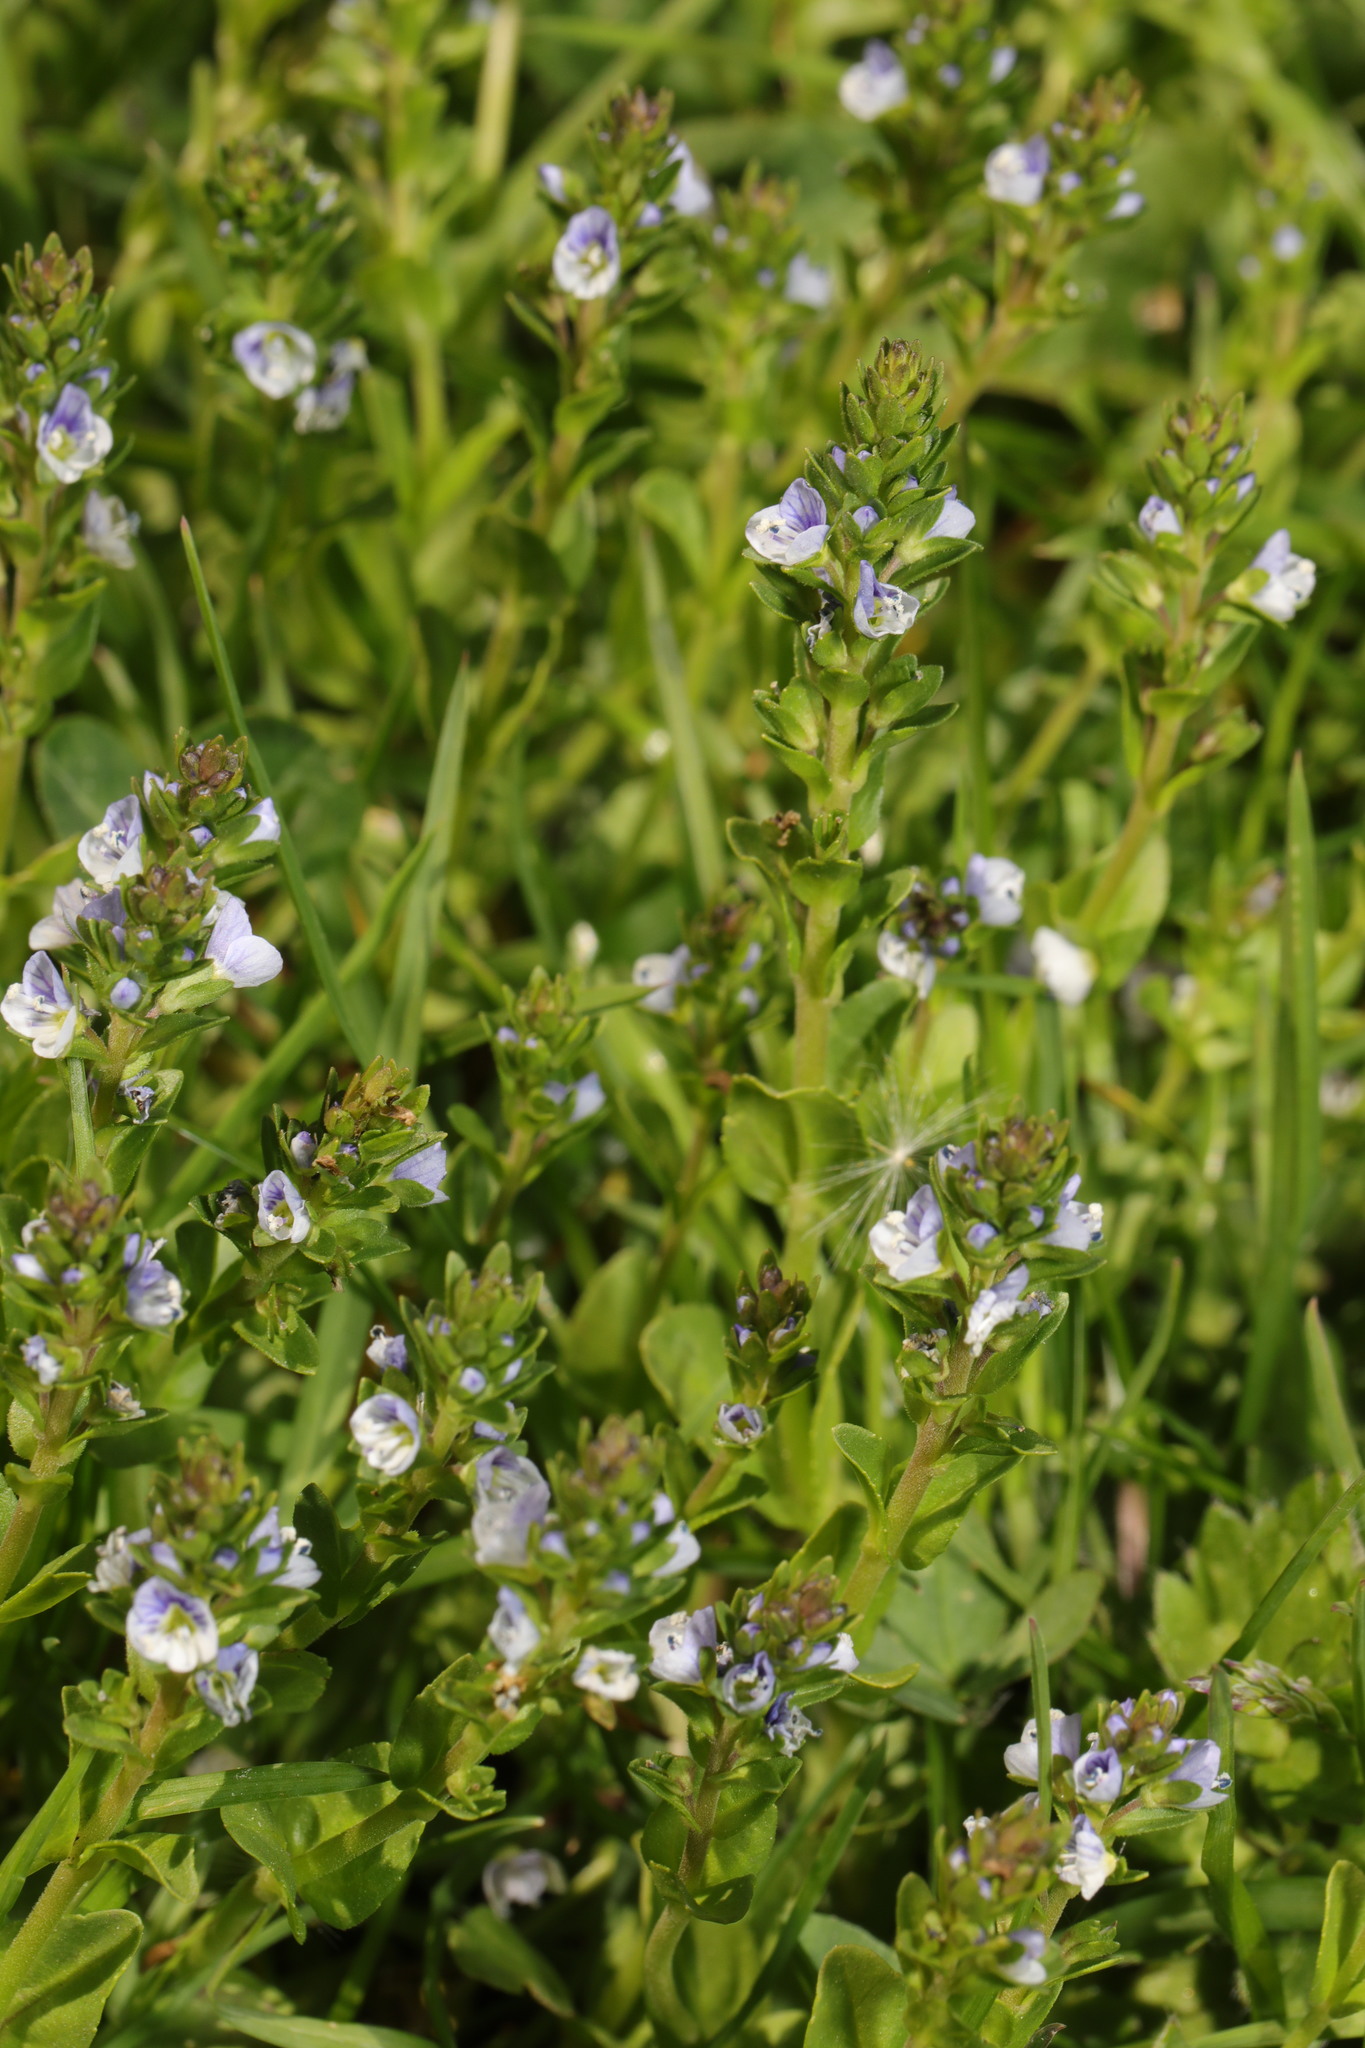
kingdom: Plantae
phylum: Tracheophyta
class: Magnoliopsida
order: Lamiales
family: Plantaginaceae
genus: Veronica
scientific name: Veronica serpyllifolia
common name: Thyme-leaved speedwell
